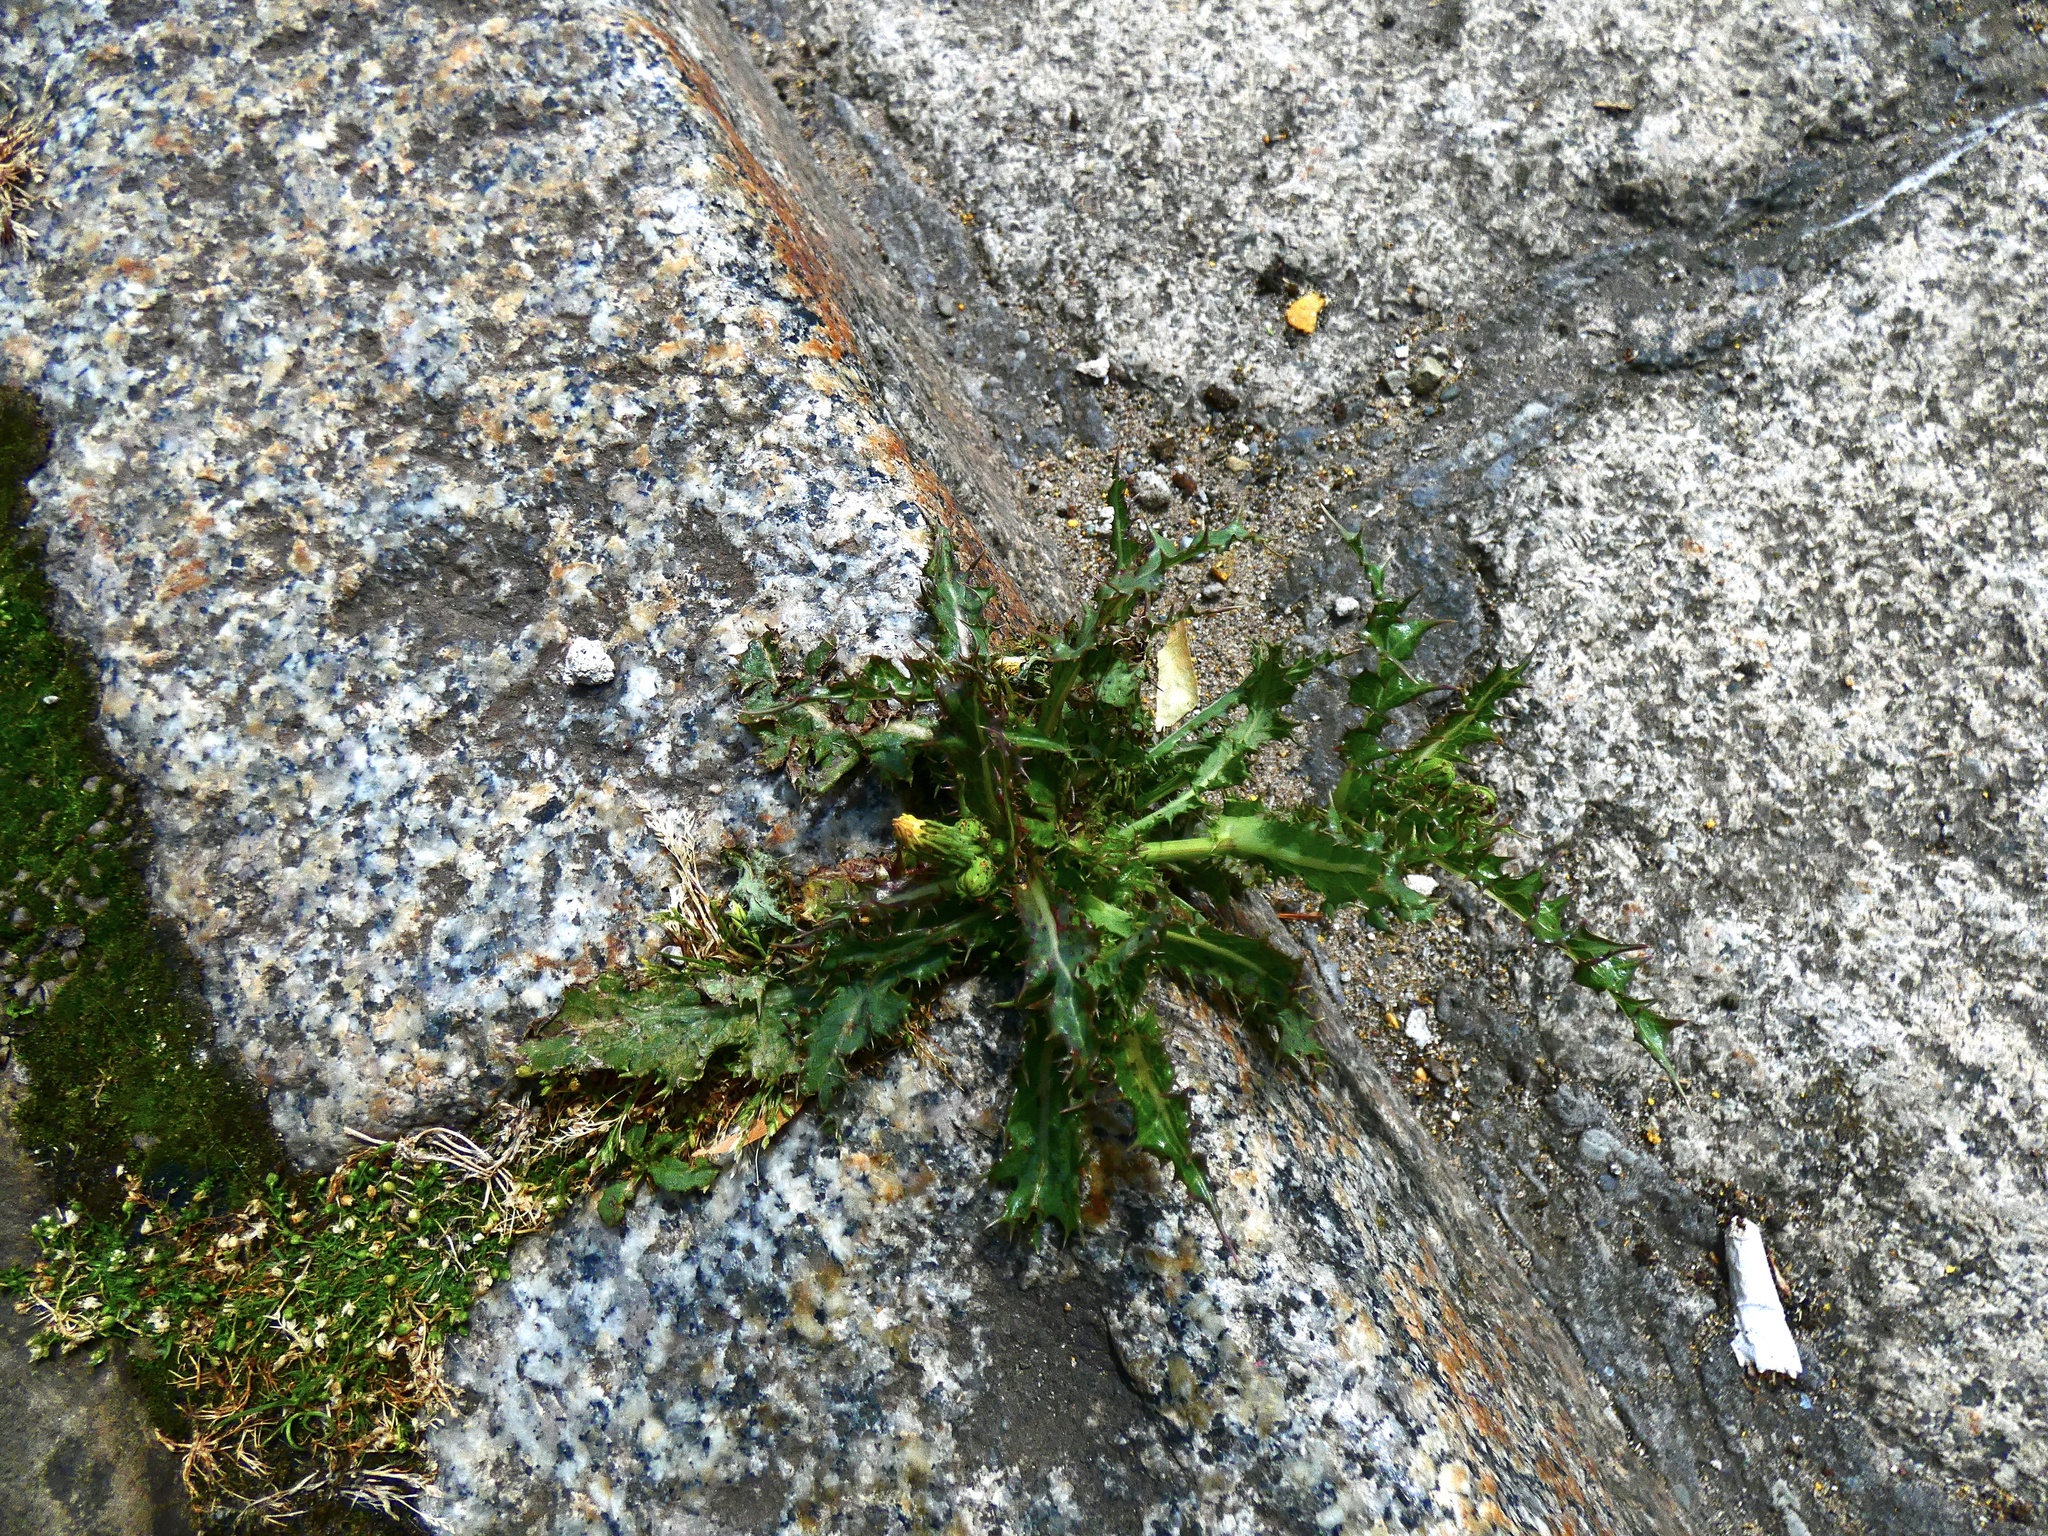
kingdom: Plantae
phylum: Tracheophyta
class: Magnoliopsida
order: Asterales
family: Asteraceae
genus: Sonchus
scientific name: Sonchus asper
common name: Prickly sow-thistle
